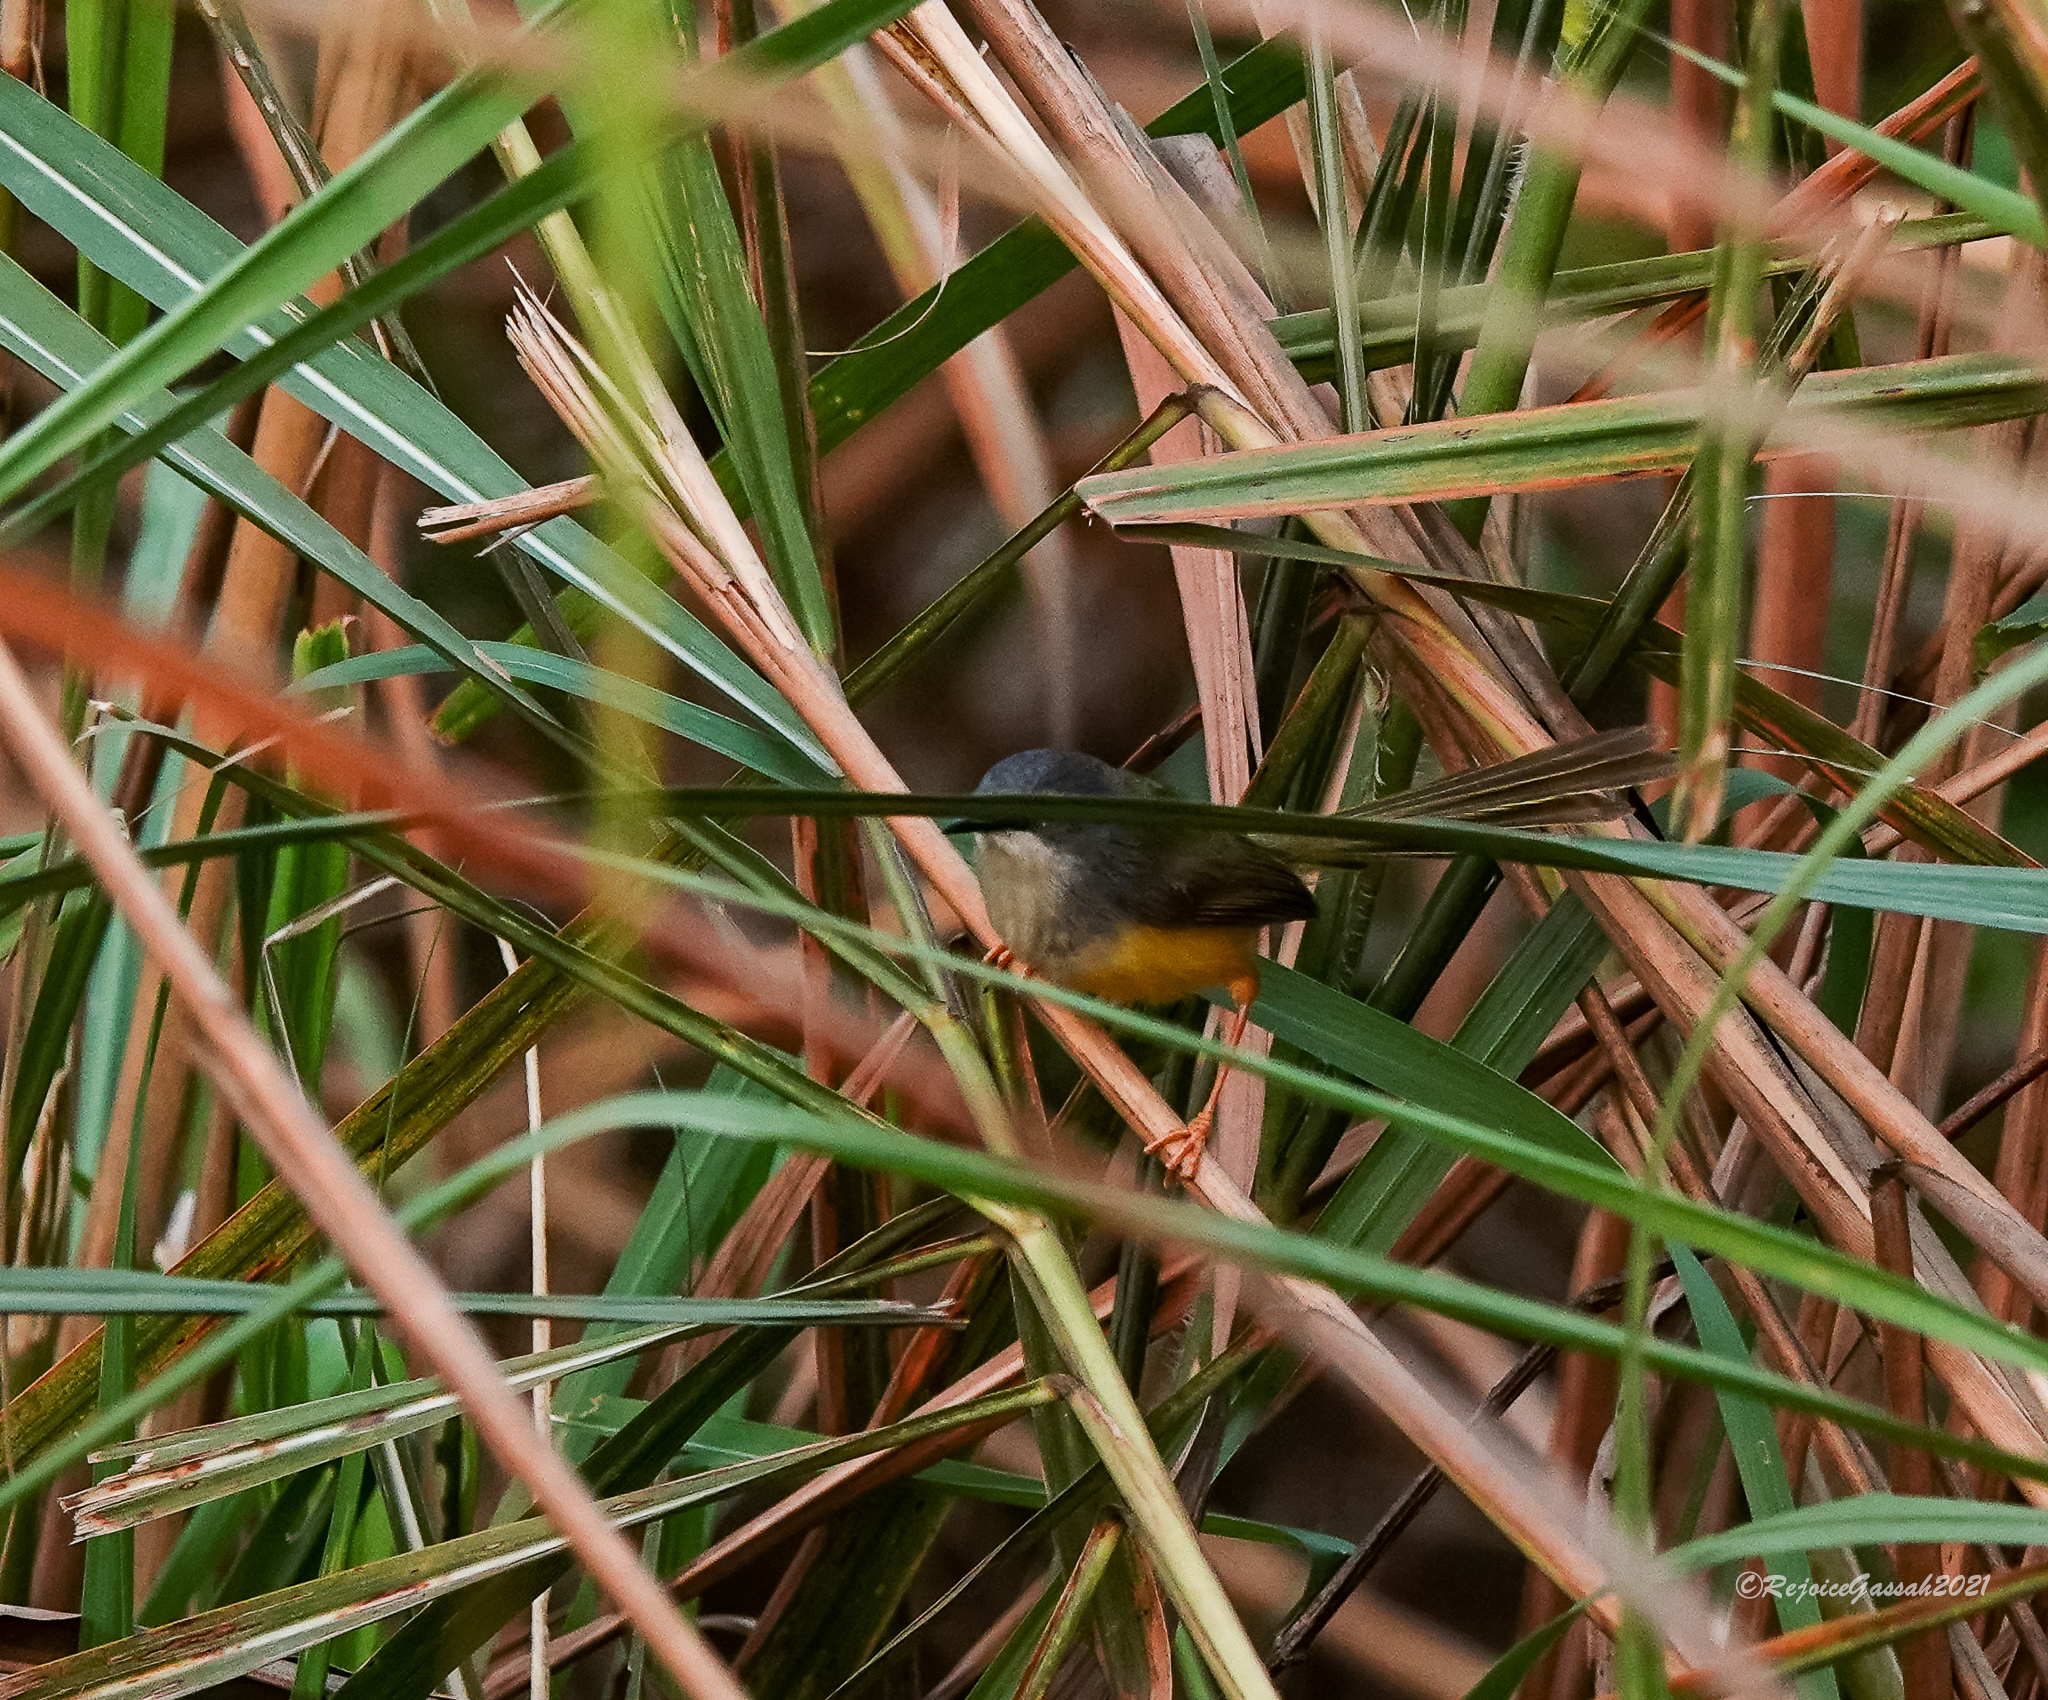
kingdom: Animalia
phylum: Chordata
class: Aves
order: Passeriformes
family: Cisticolidae
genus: Prinia
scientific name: Prinia flaviventris
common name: Yellow-bellied prinia
